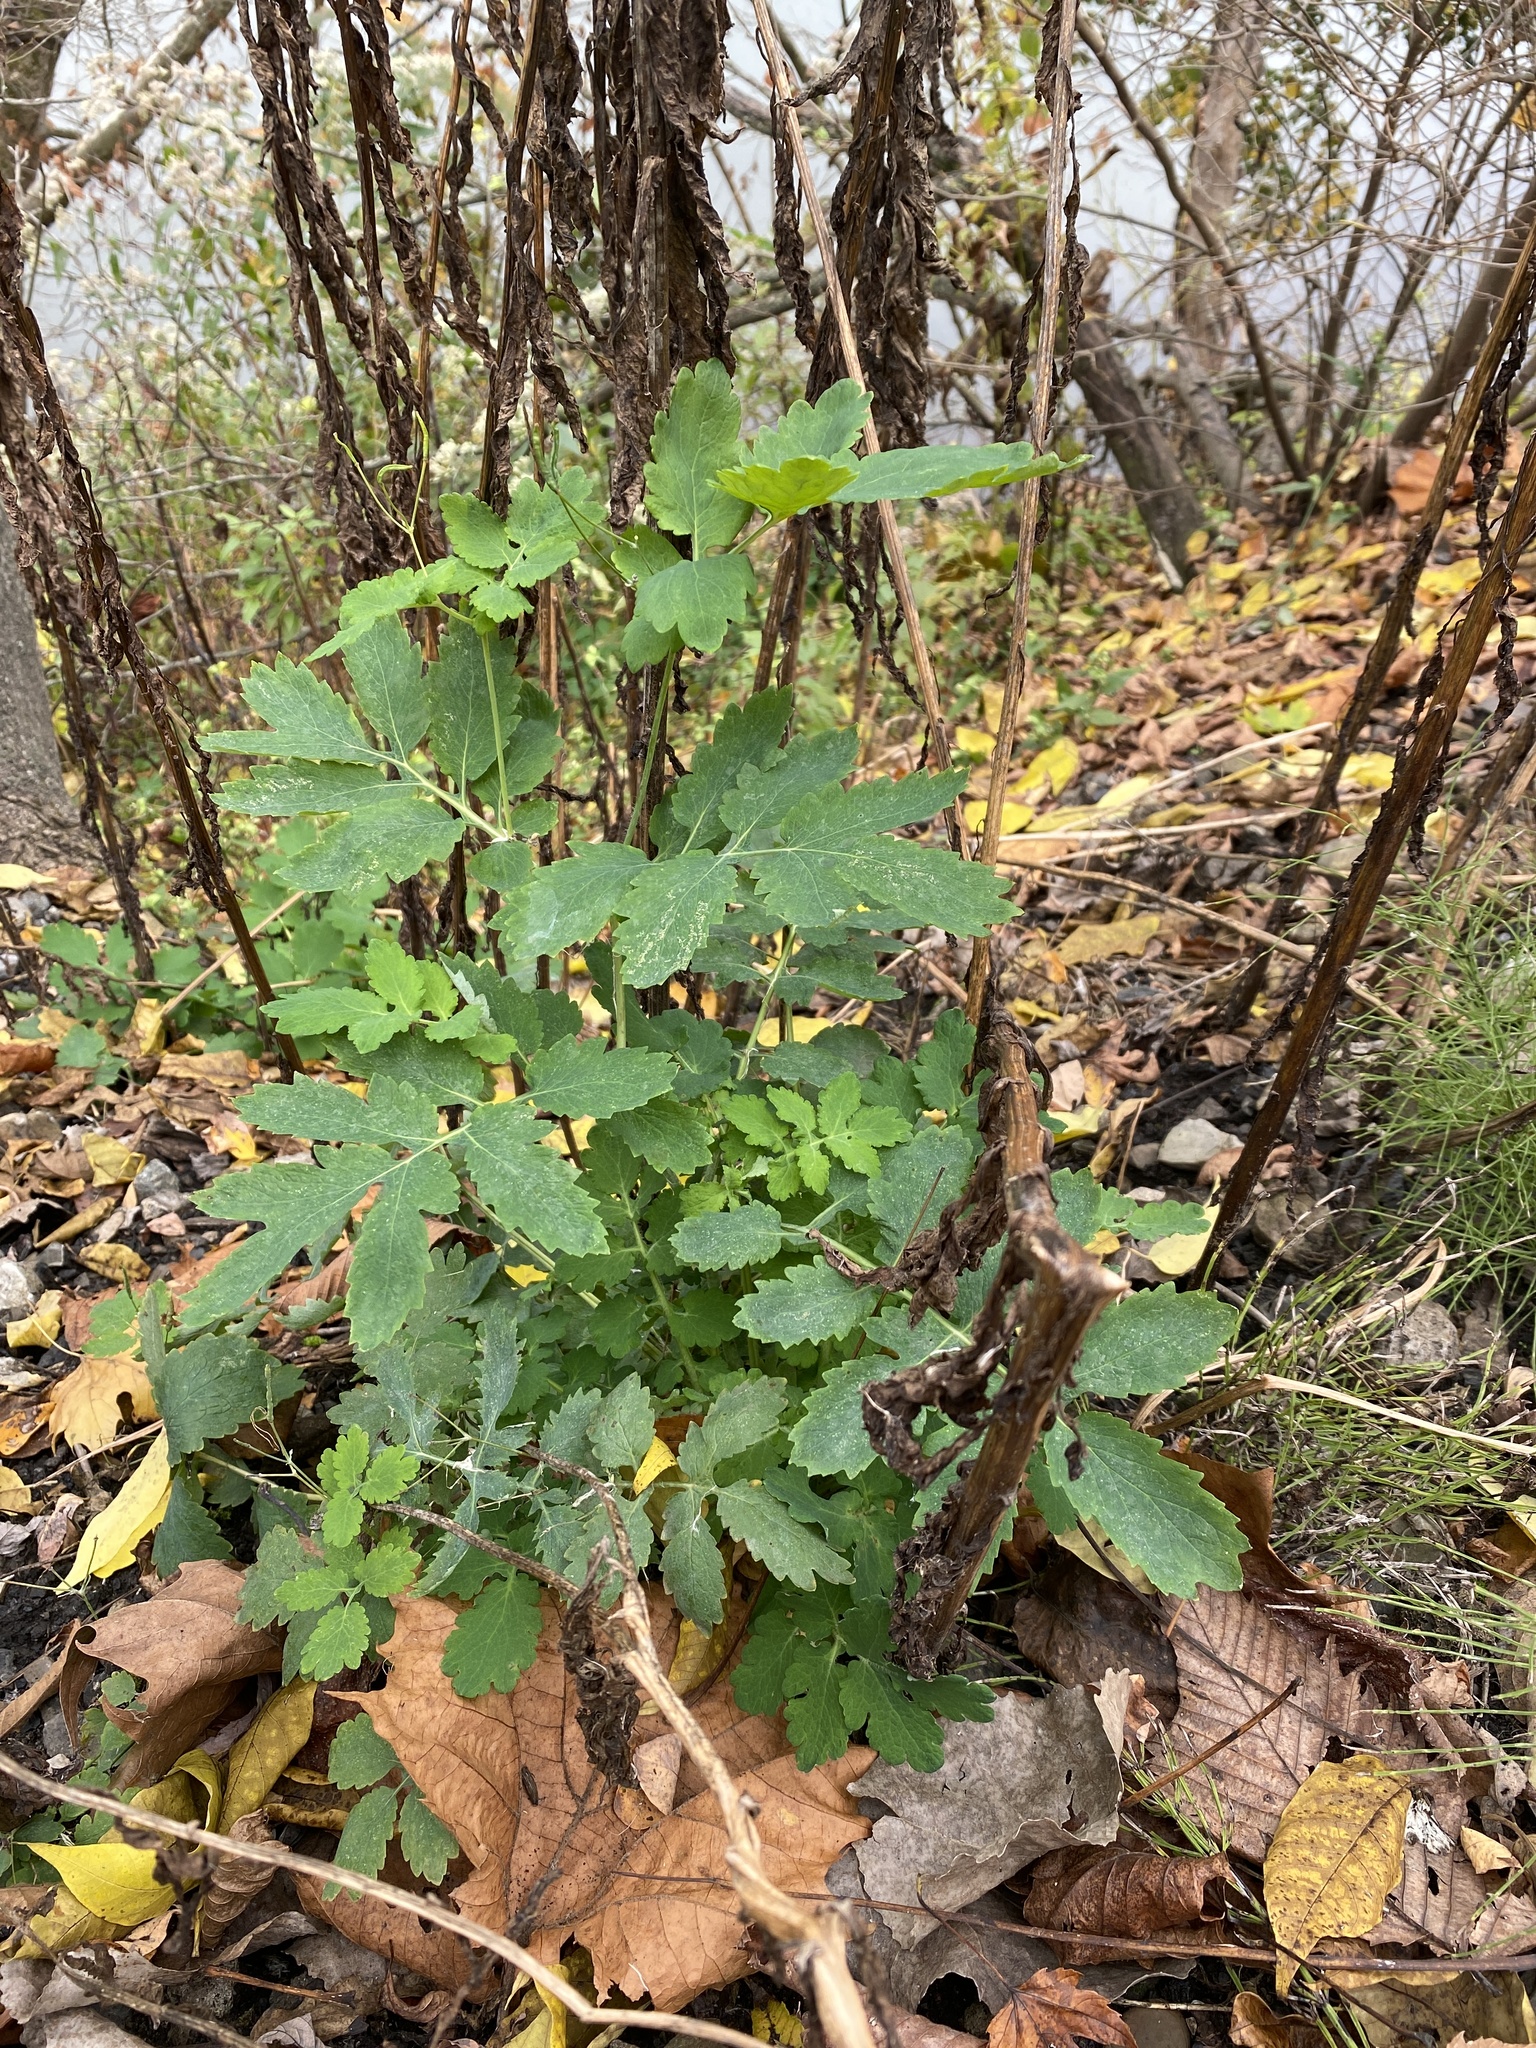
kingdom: Plantae
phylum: Tracheophyta
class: Magnoliopsida
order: Ranunculales
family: Papaveraceae
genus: Chelidonium
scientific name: Chelidonium majus
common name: Greater celandine
